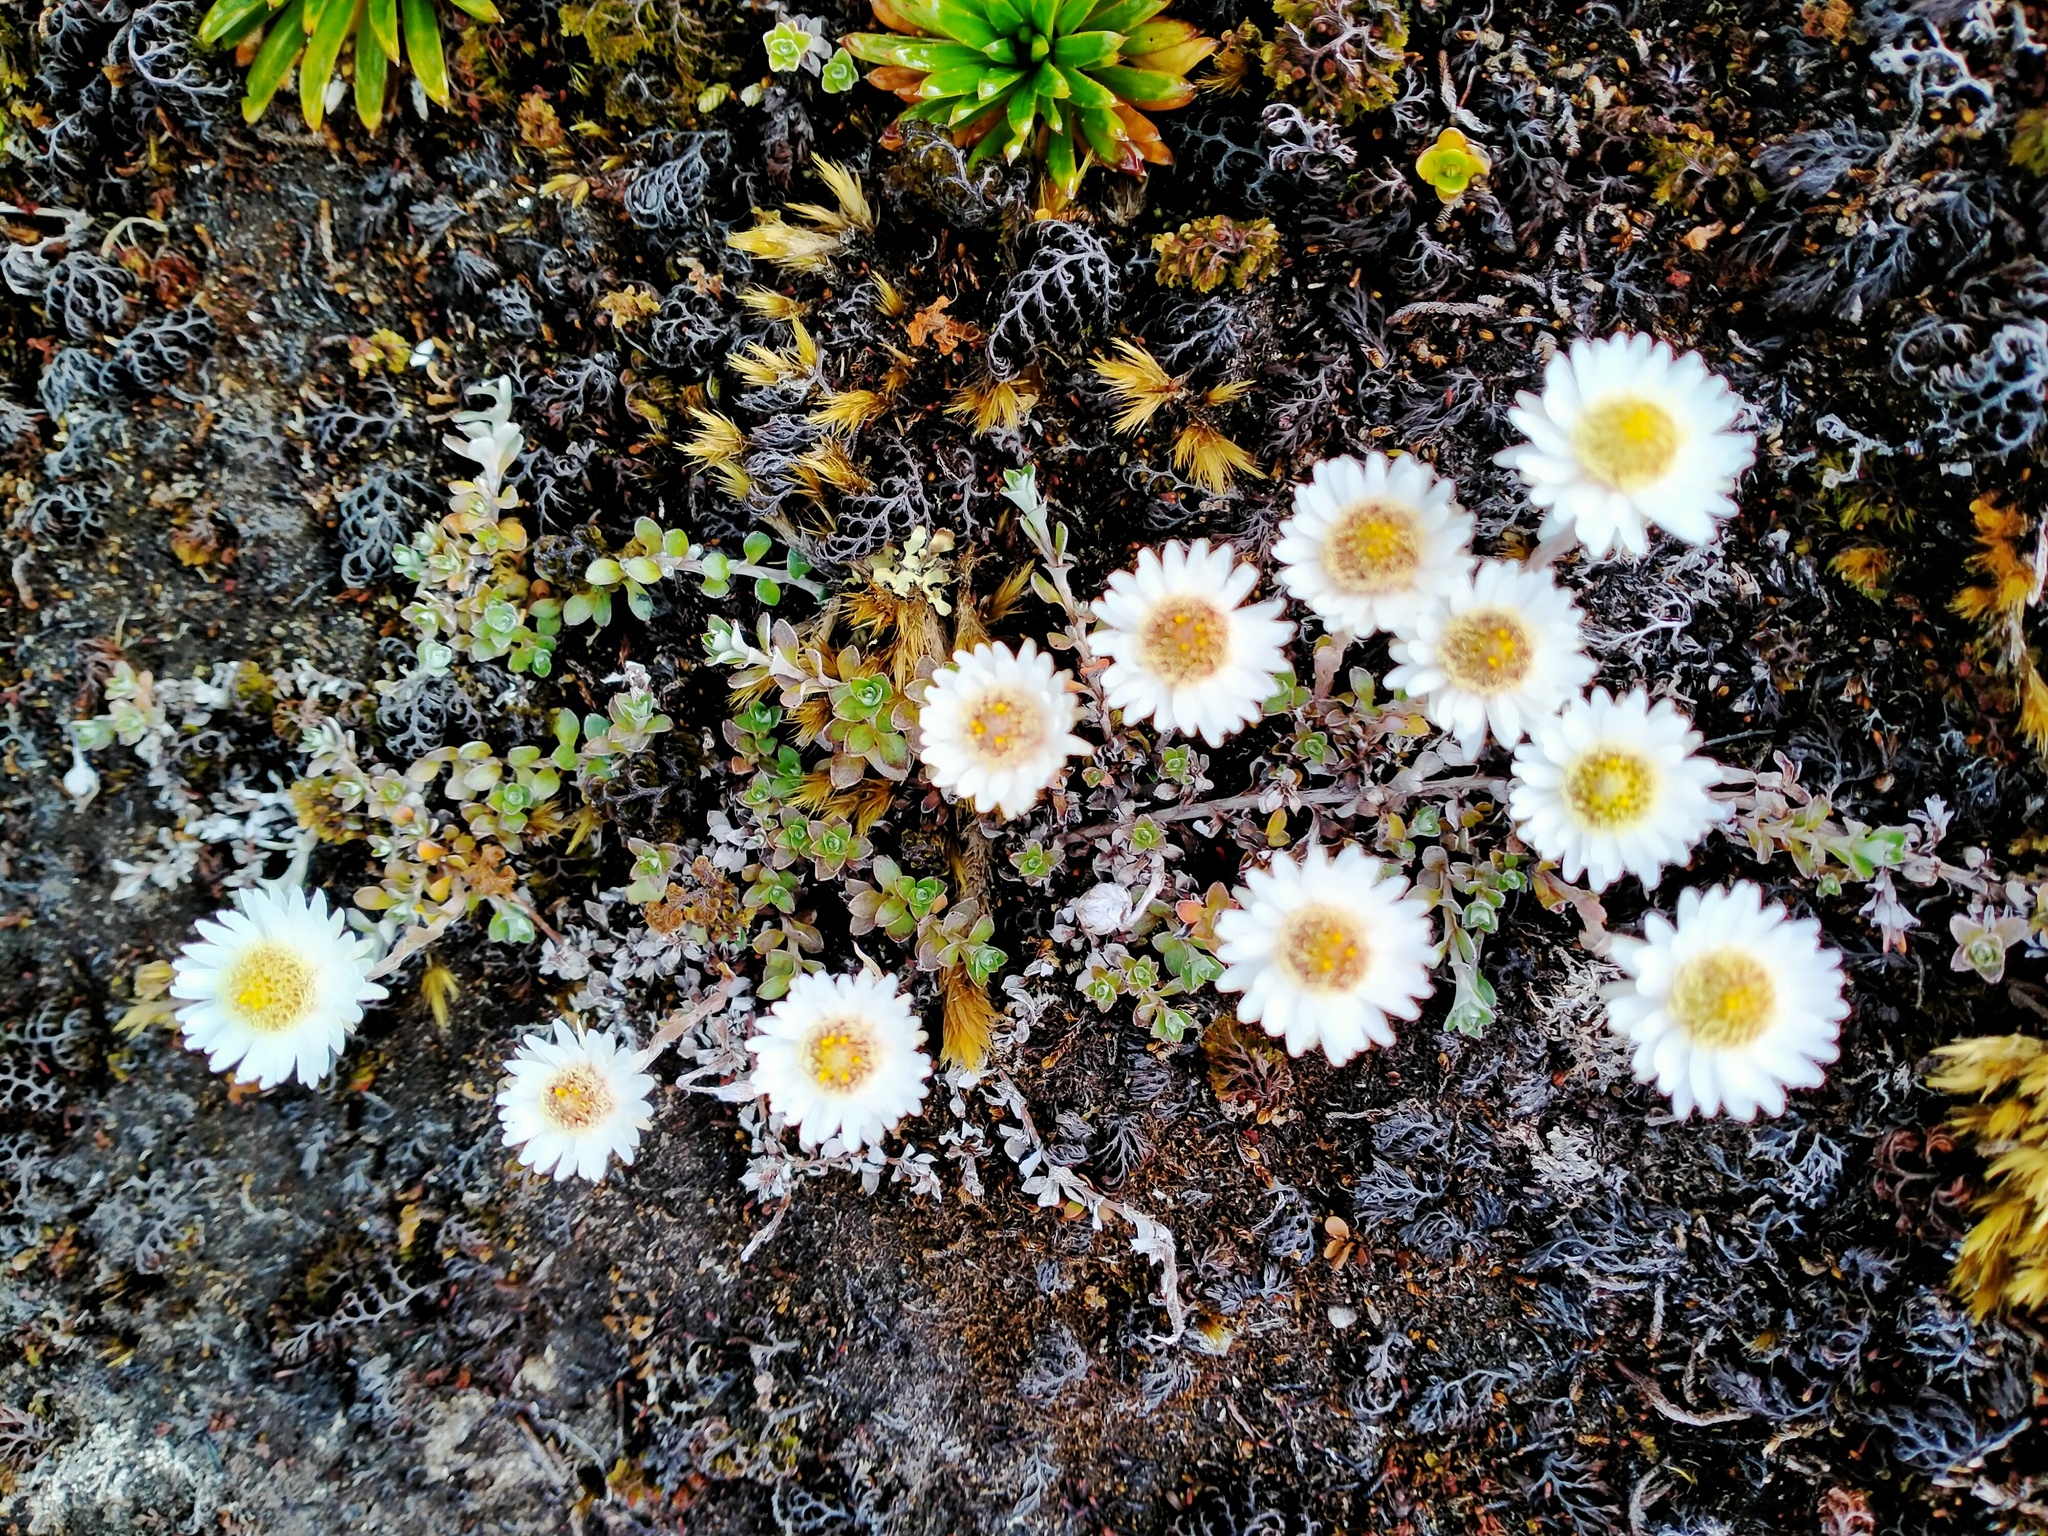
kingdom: Plantae
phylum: Tracheophyta
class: Magnoliopsida
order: Asterales
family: Asteraceae
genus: Anaphalioides
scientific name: Anaphalioides bellidioides
